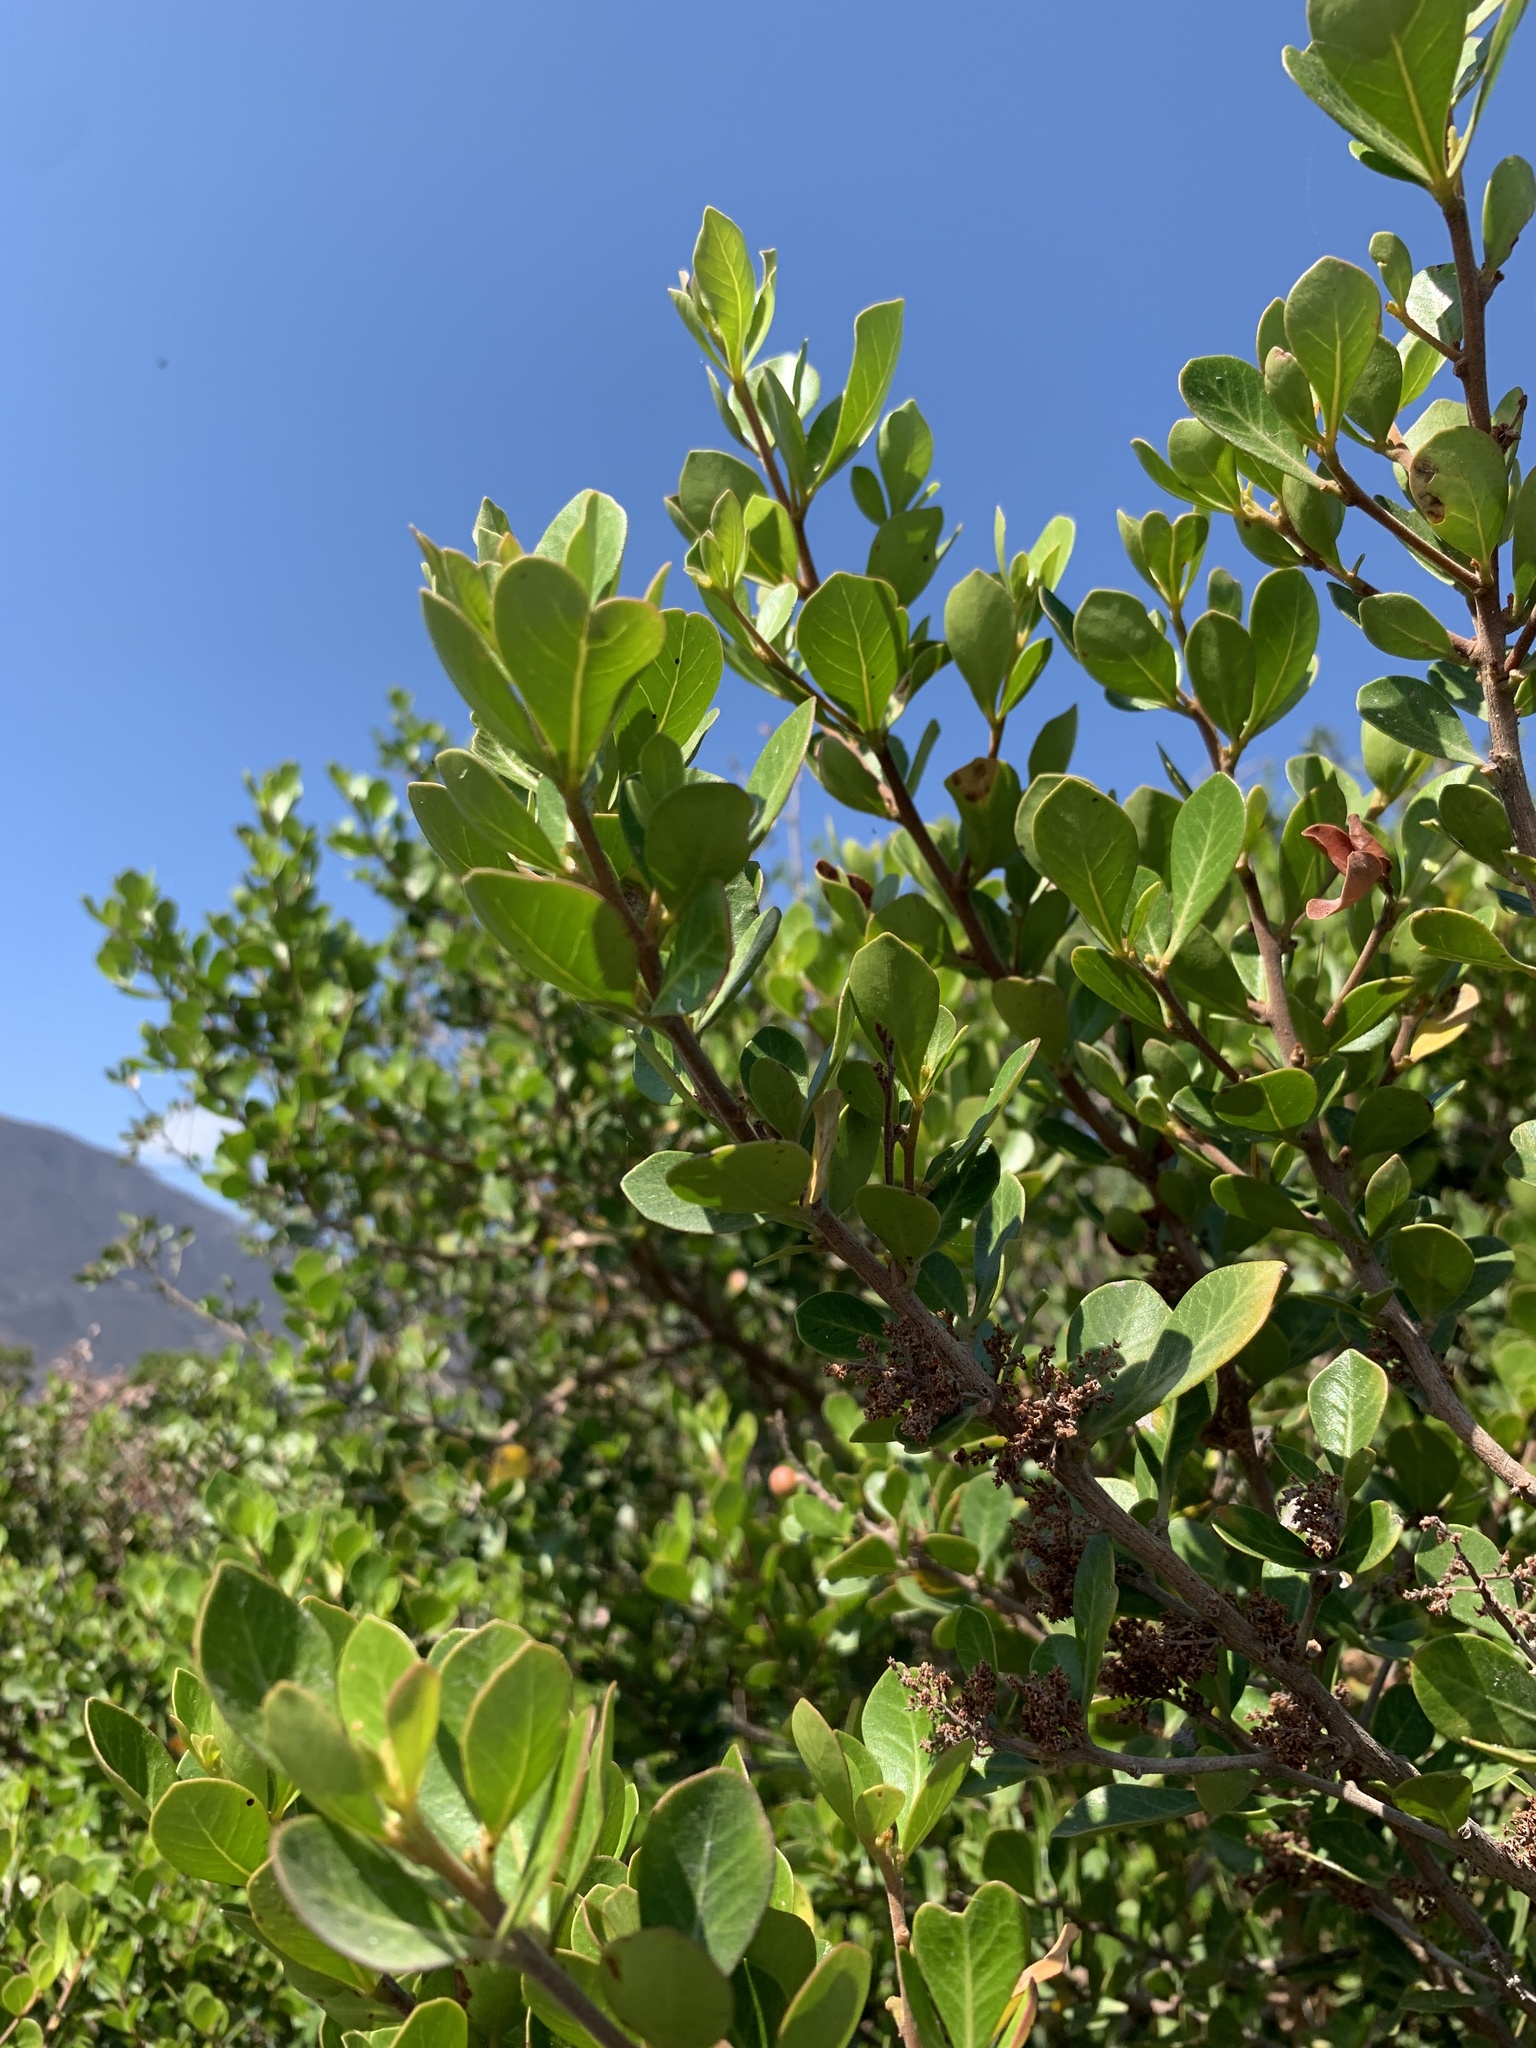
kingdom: Plantae
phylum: Tracheophyta
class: Magnoliopsida
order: Sapindales
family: Anacardiaceae
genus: Searsia
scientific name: Searsia lucida
